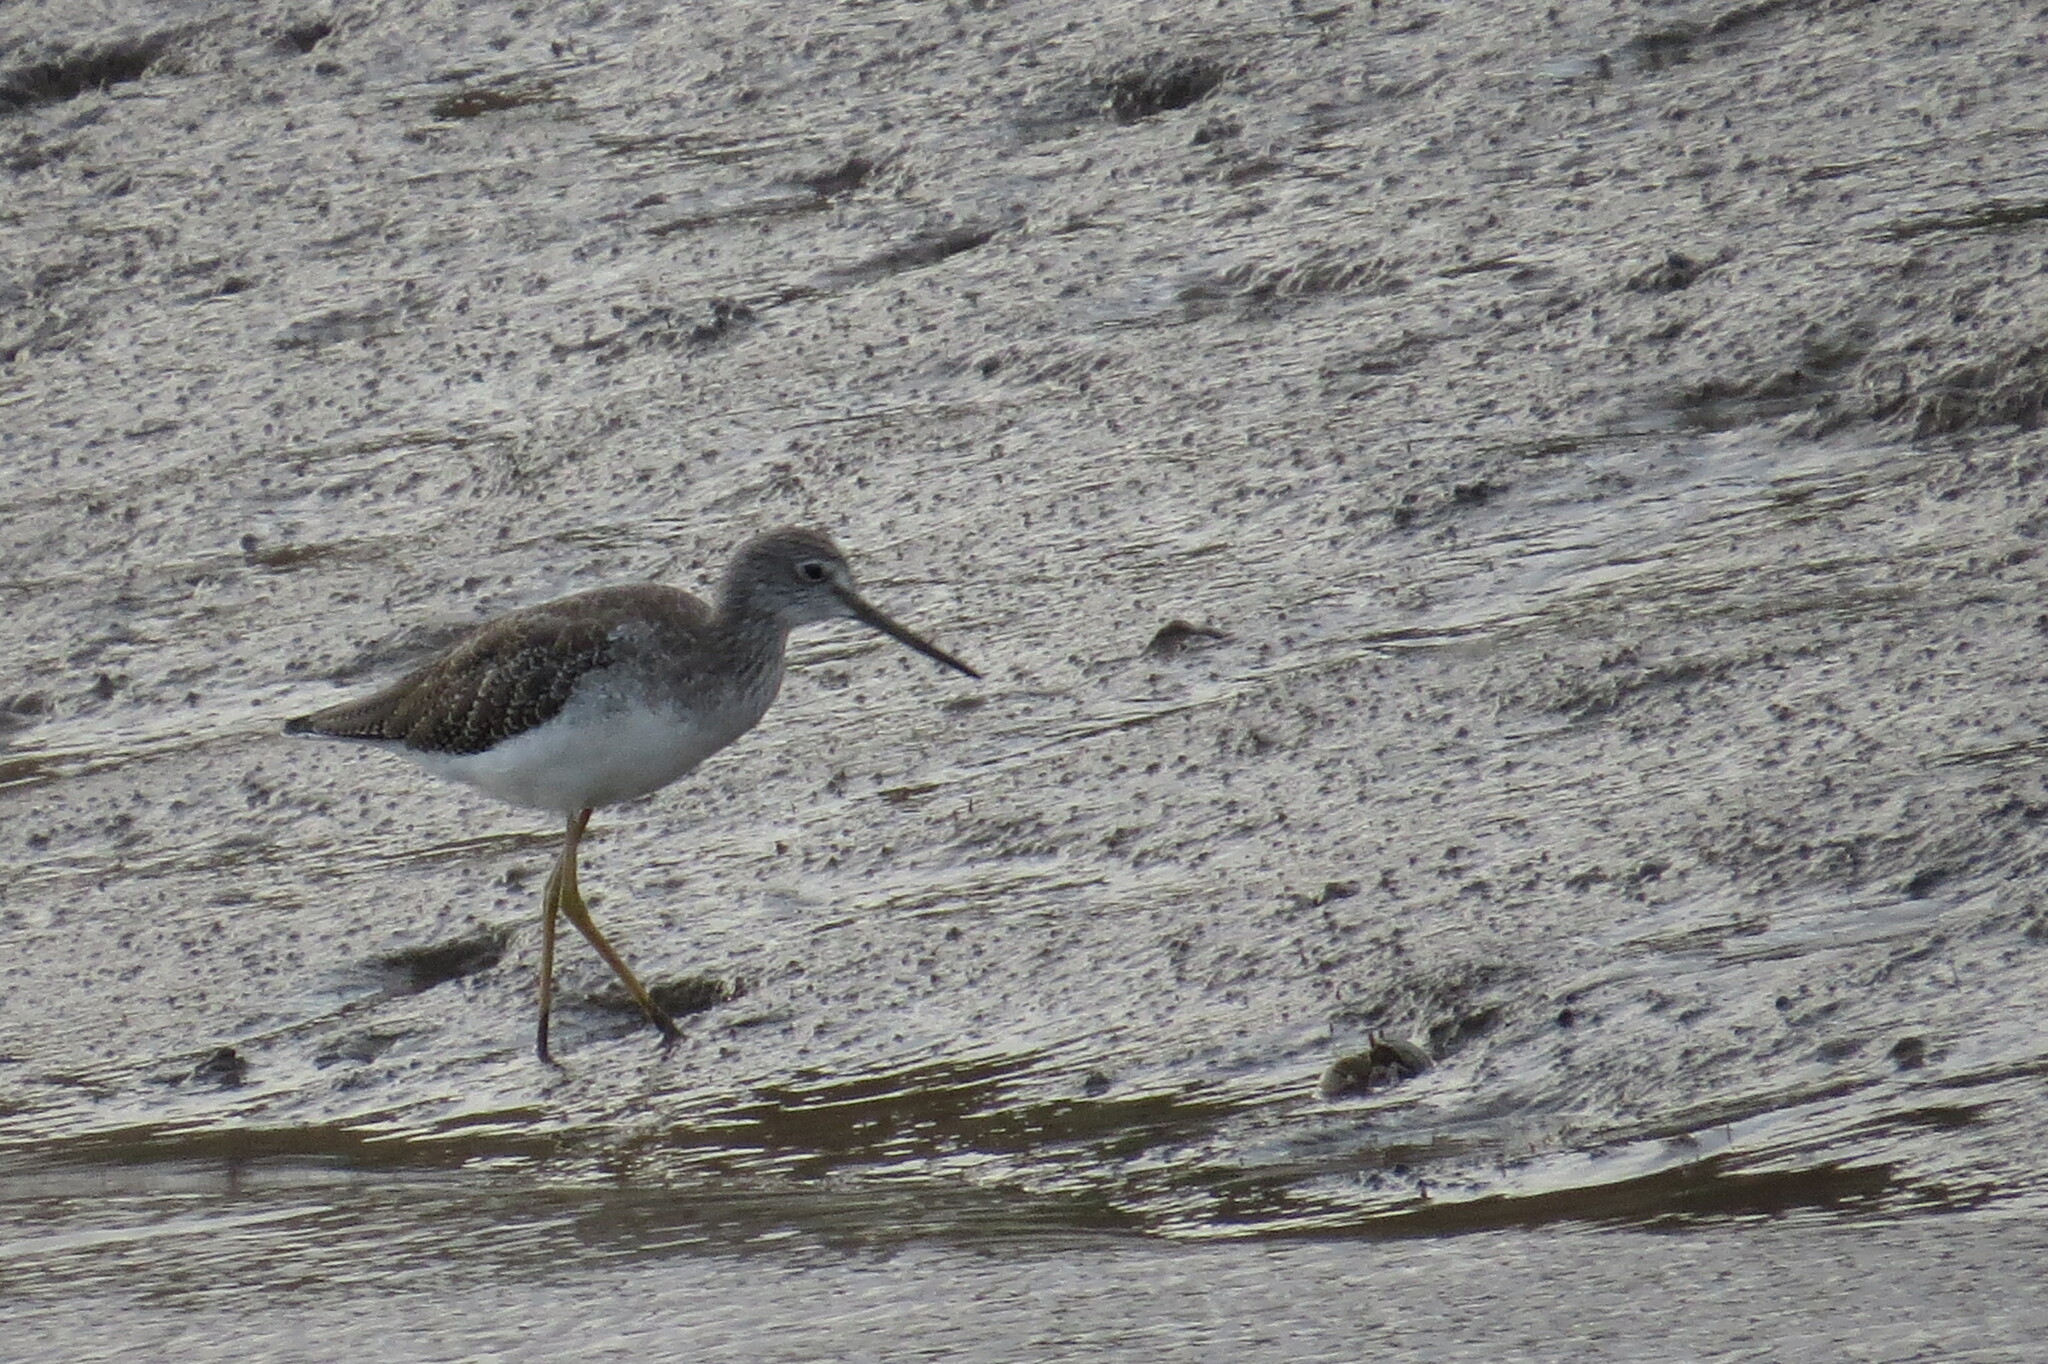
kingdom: Animalia
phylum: Chordata
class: Aves
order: Charadriiformes
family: Scolopacidae
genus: Tringa
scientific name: Tringa flavipes
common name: Lesser yellowlegs
